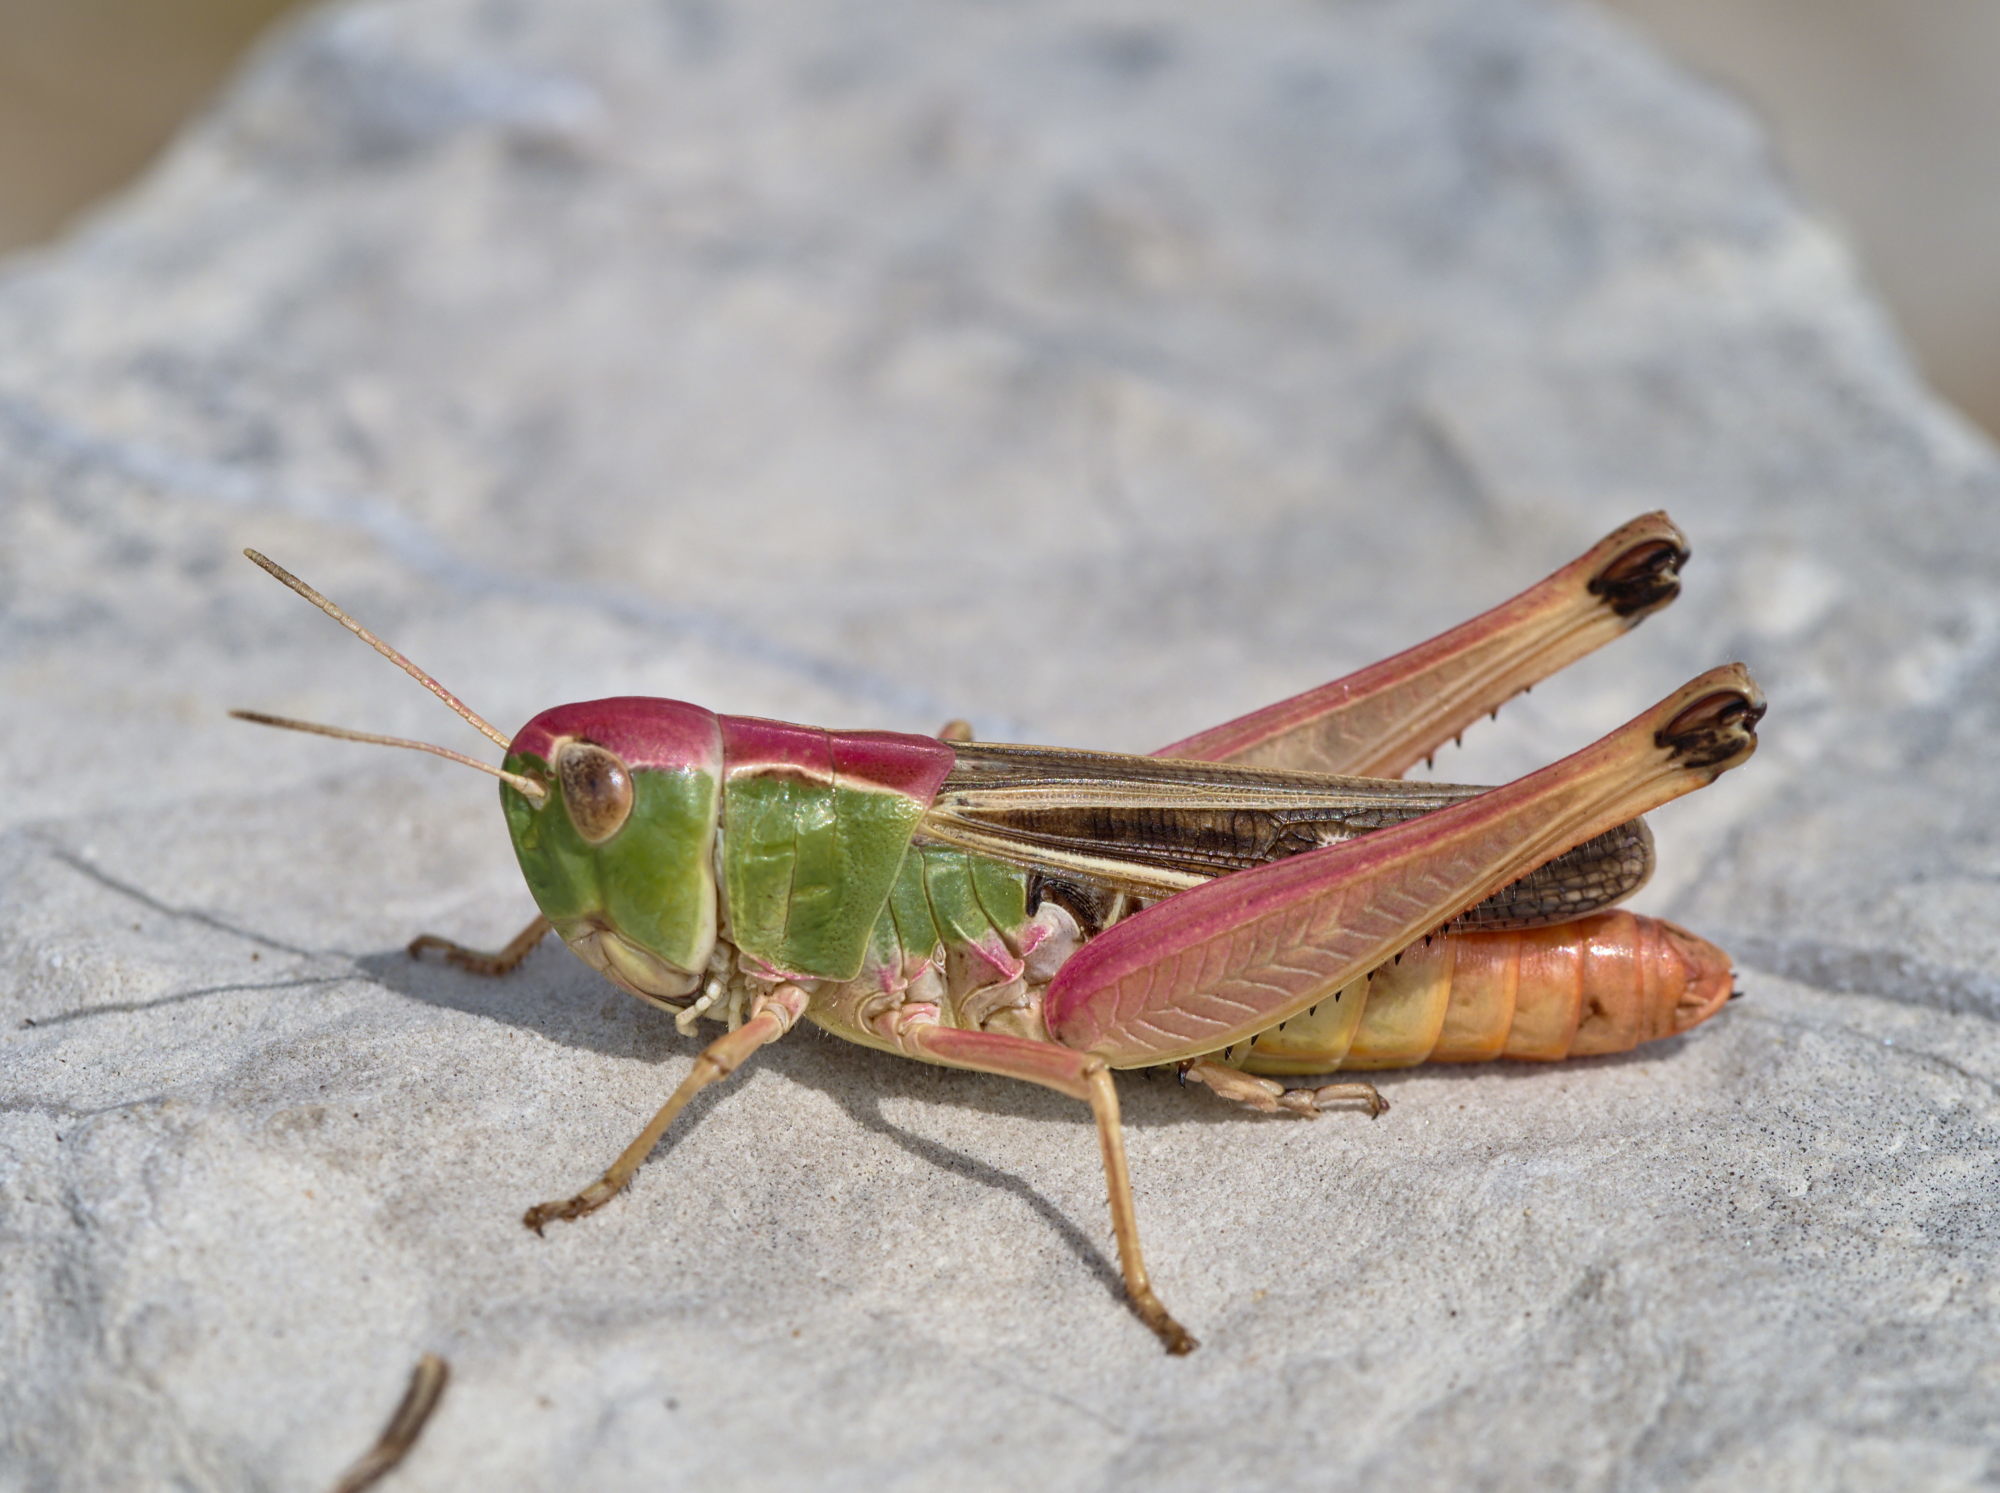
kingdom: Animalia
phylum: Arthropoda
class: Insecta
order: Orthoptera
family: Acrididae
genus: Stenobothrus
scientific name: Stenobothrus lineatus
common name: Stripe-winged grasshopper
